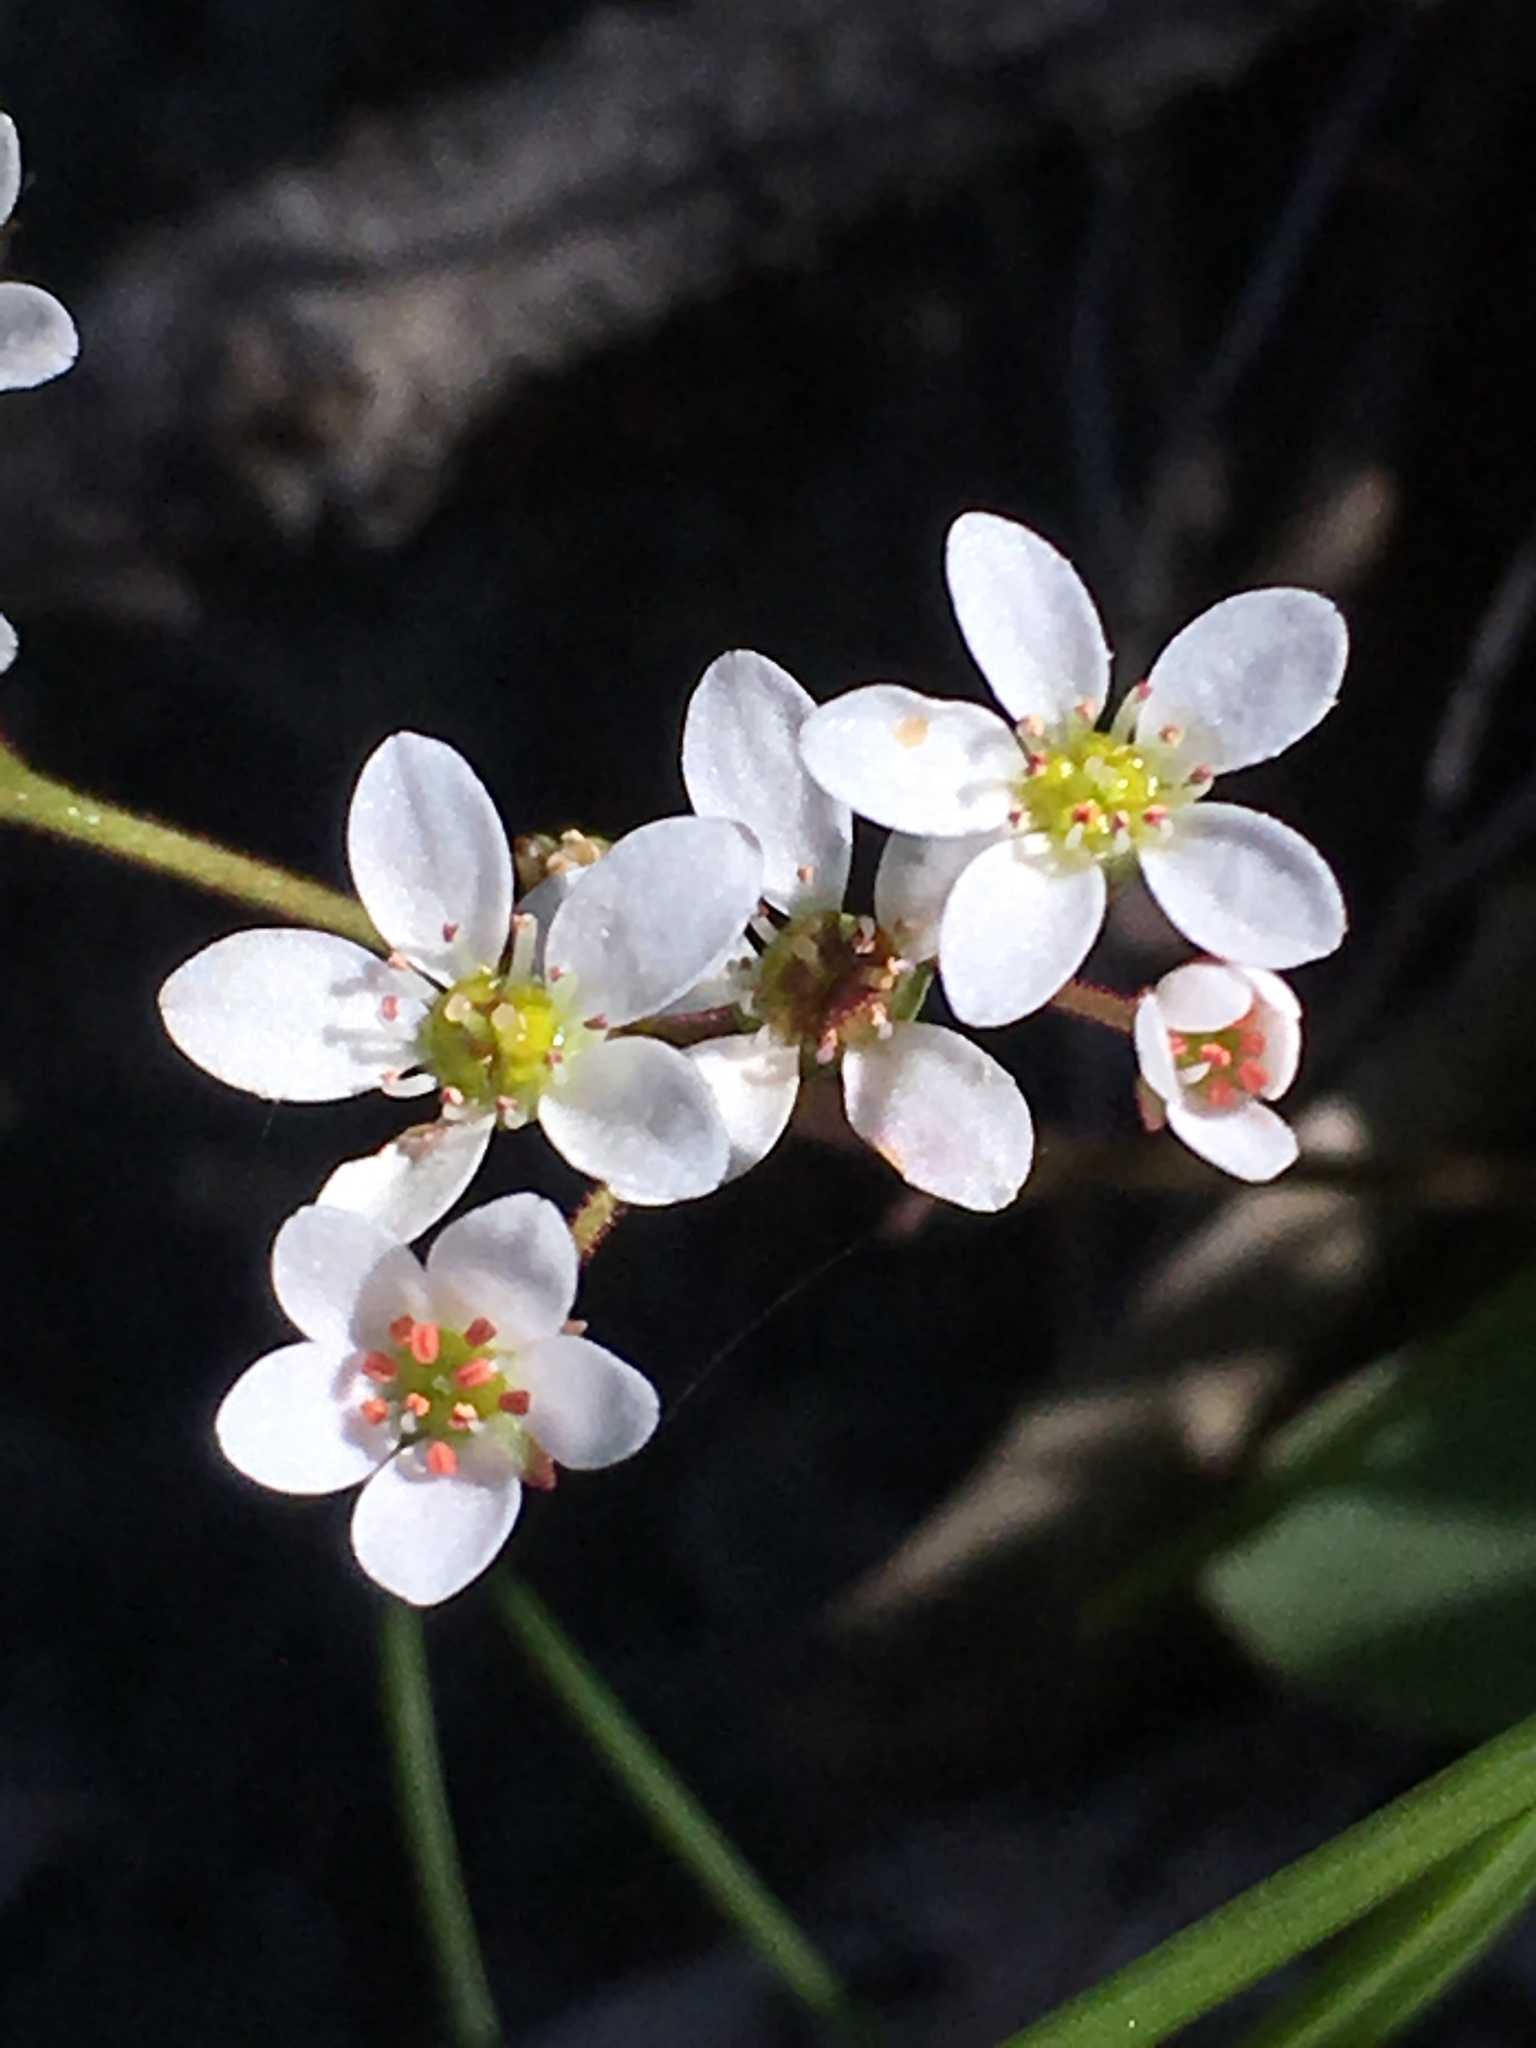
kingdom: Plantae
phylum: Tracheophyta
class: Magnoliopsida
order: Saxifragales
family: Saxifragaceae
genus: Micranthes
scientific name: Micranthes californica
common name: California saxifrage
